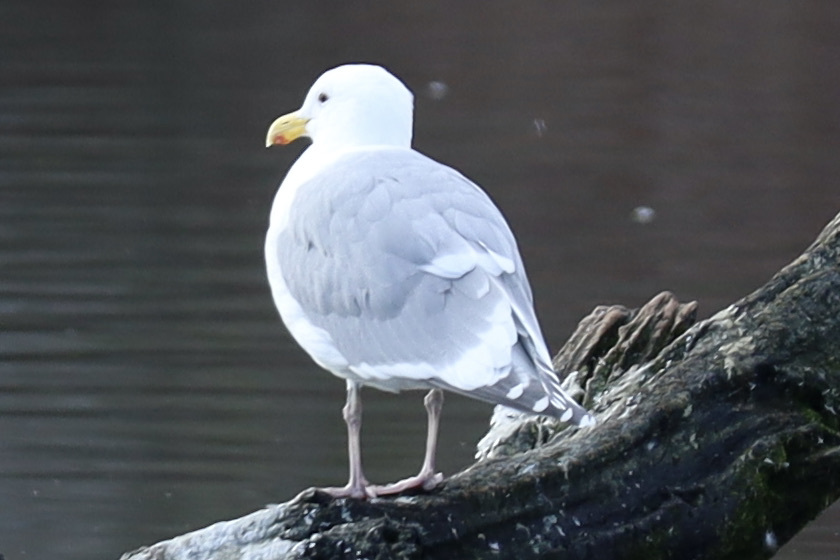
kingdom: Animalia
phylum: Chordata
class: Aves
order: Charadriiformes
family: Laridae
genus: Larus
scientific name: Larus
